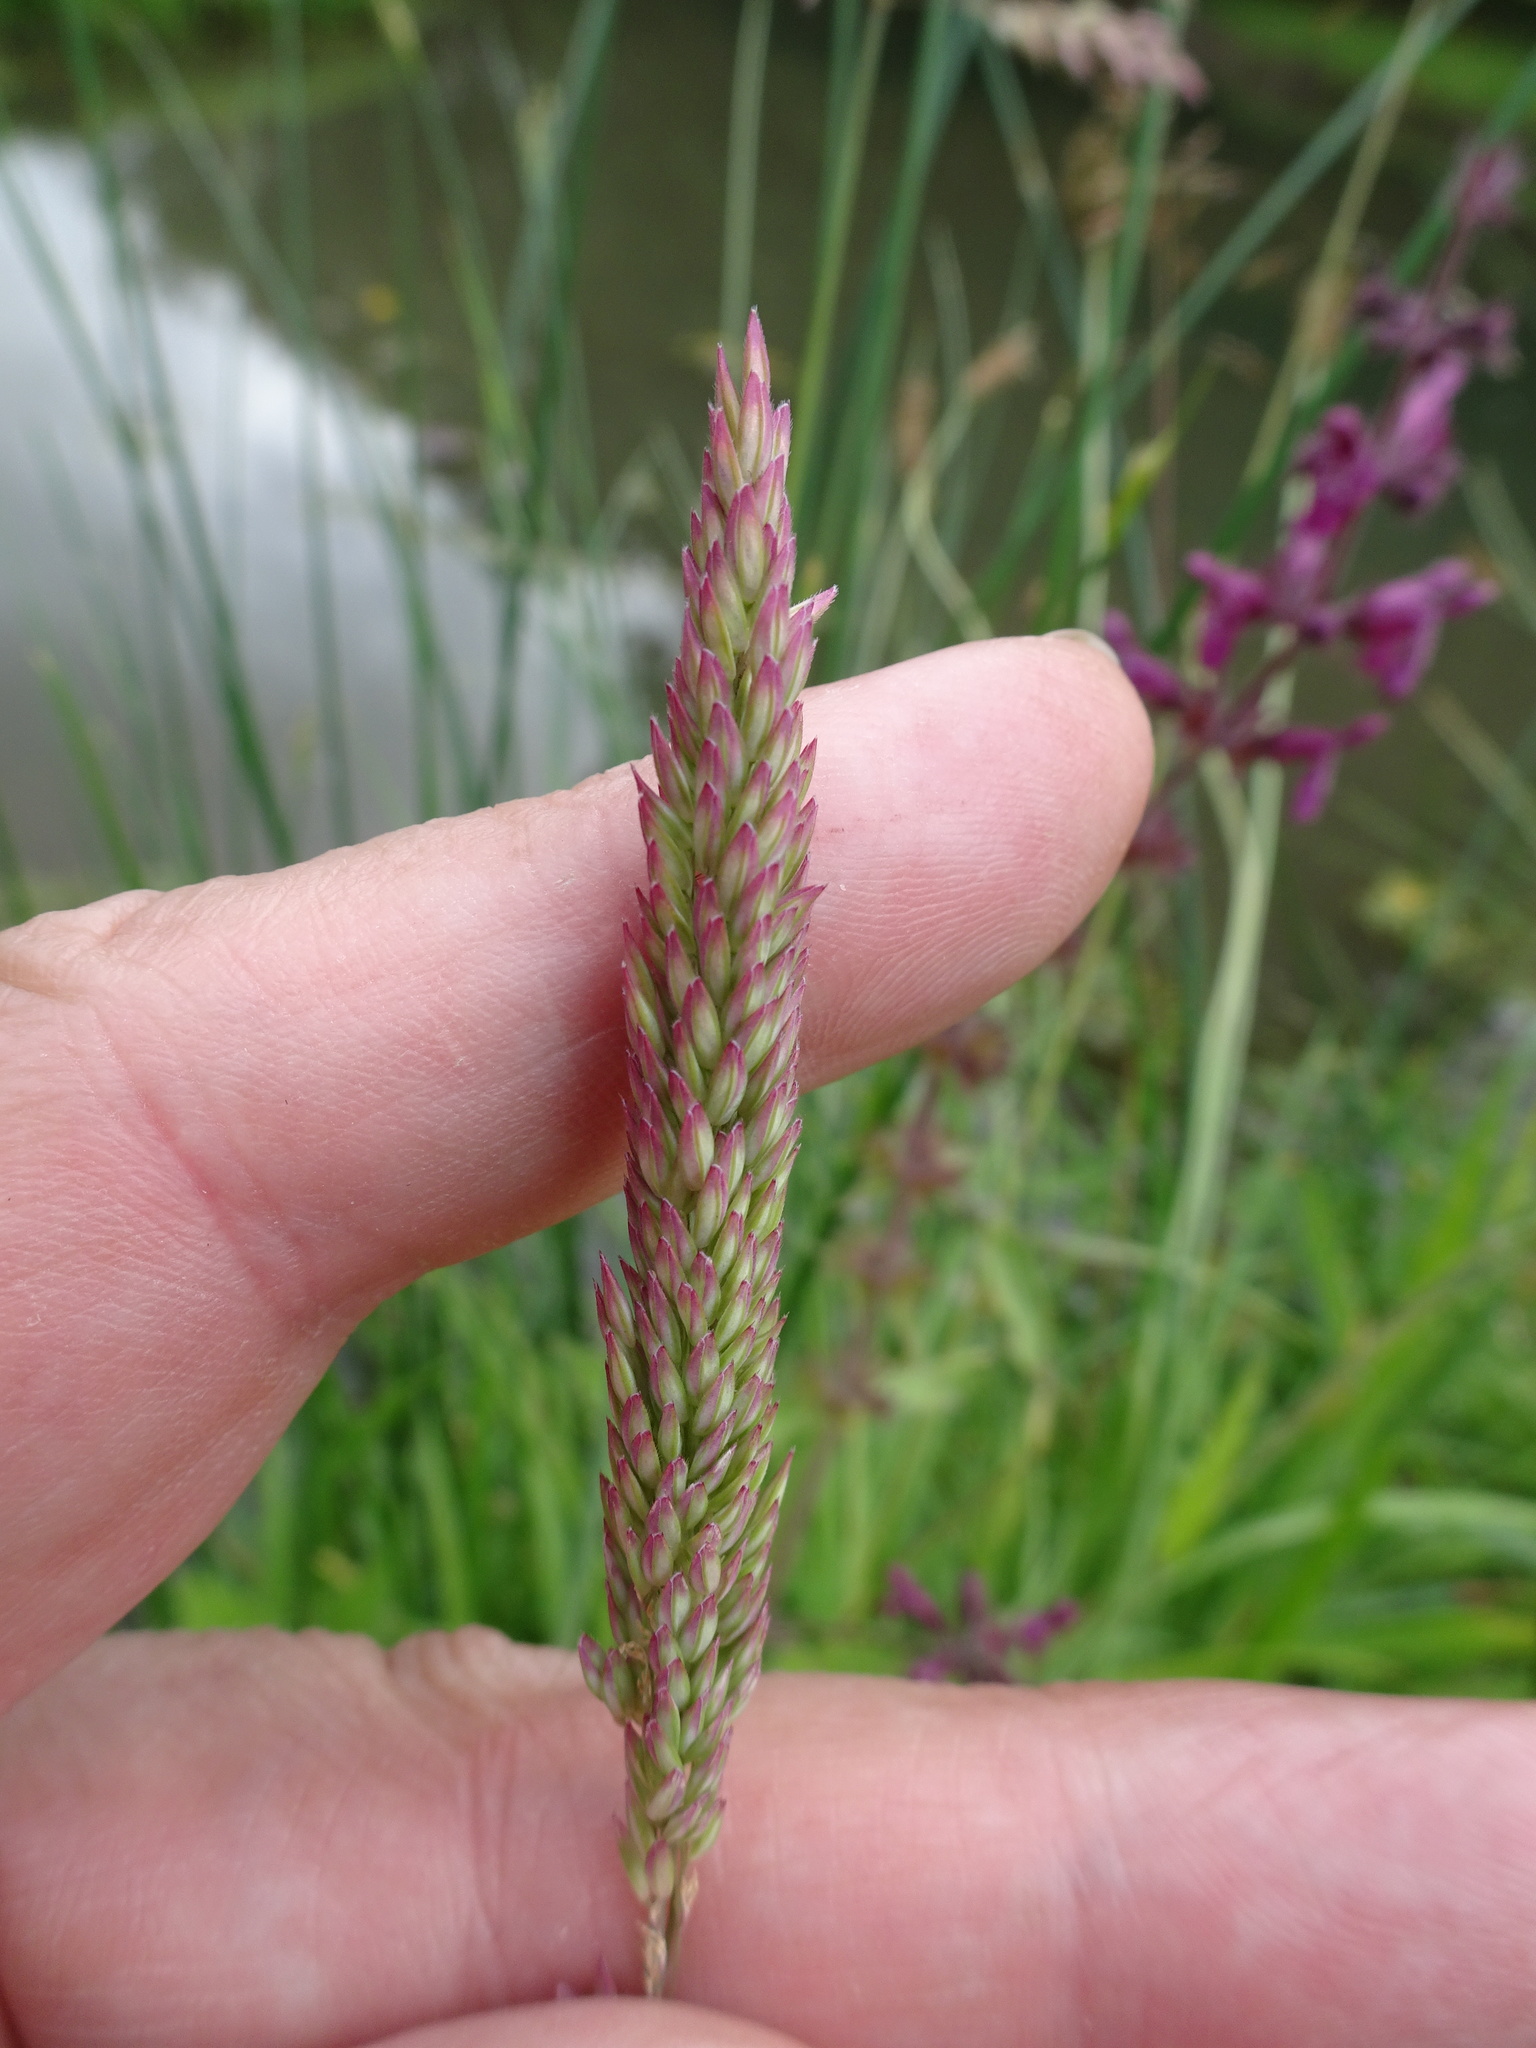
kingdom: Plantae
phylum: Tracheophyta
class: Liliopsida
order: Poales
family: Poaceae
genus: Holcus
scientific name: Holcus lanatus
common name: Yorkshire-fog
